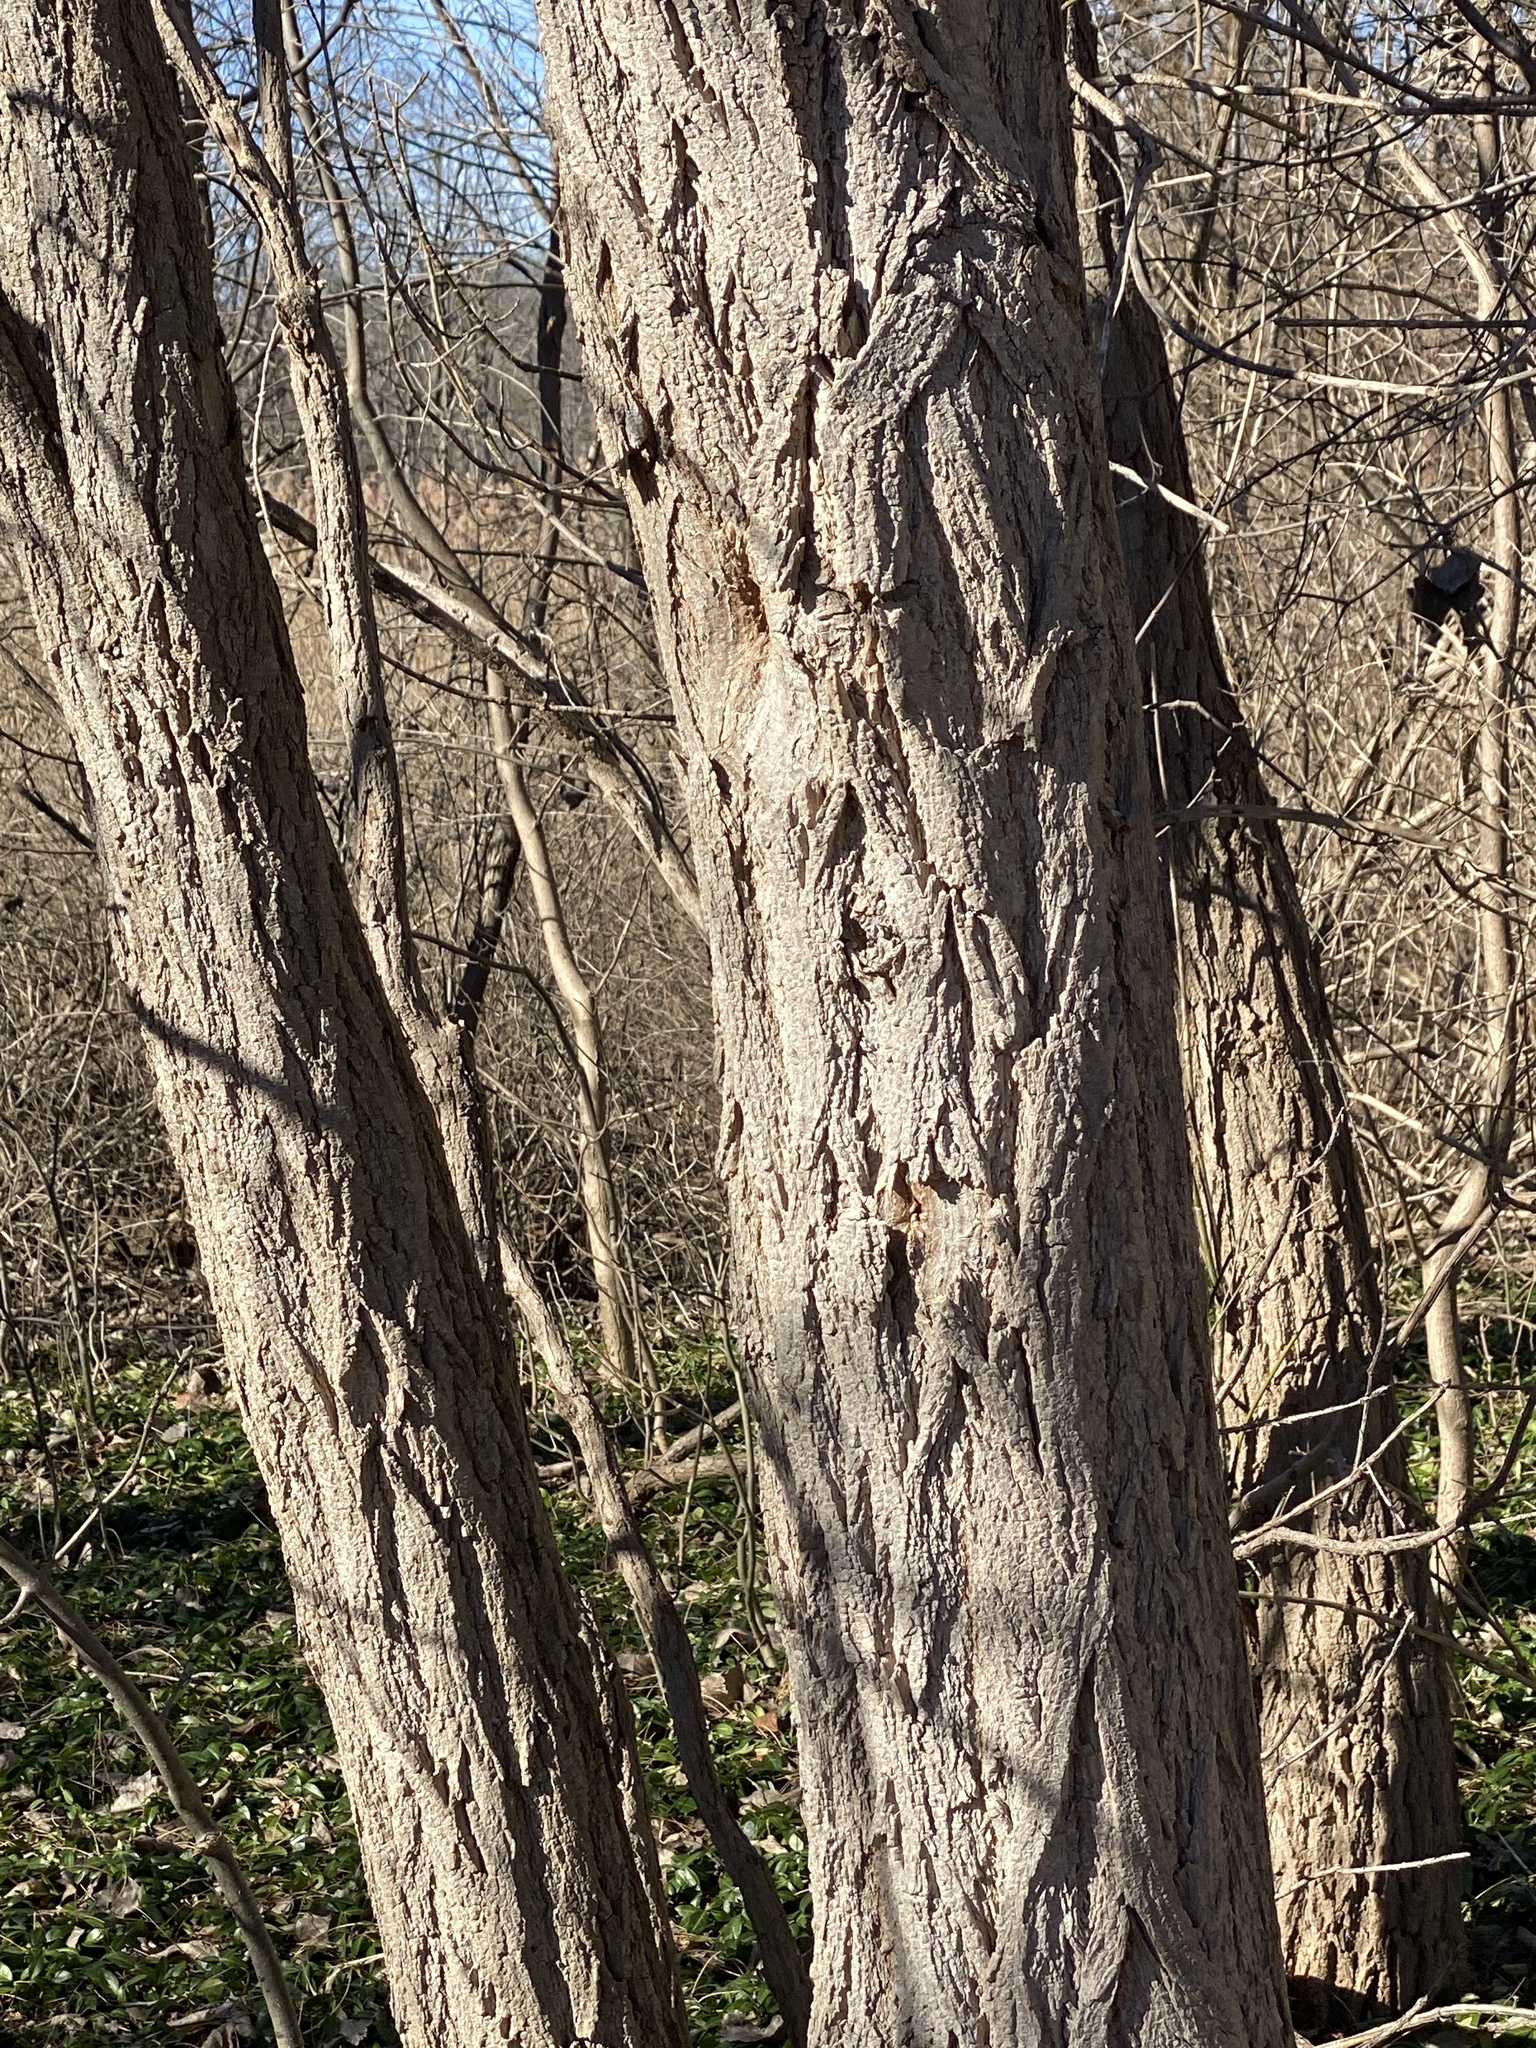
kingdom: Plantae
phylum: Tracheophyta
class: Magnoliopsida
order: Fabales
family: Fabaceae
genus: Robinia
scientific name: Robinia pseudoacacia
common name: Black locust
